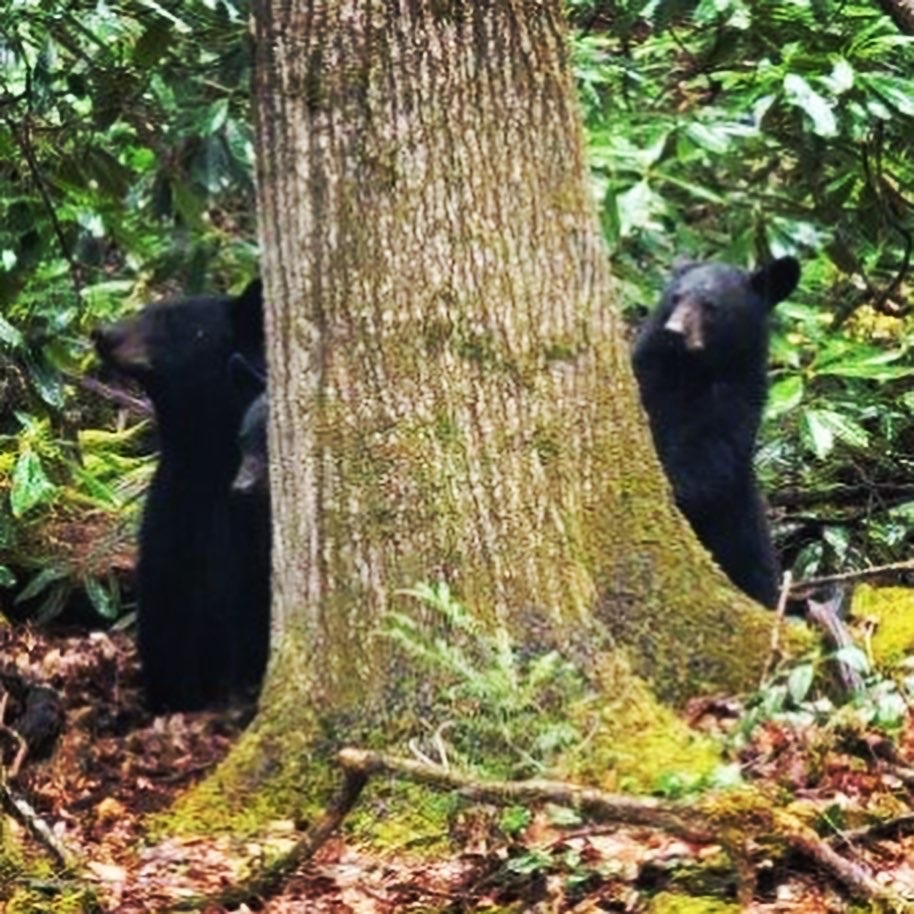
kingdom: Animalia
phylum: Chordata
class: Mammalia
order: Carnivora
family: Ursidae
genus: Ursus
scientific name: Ursus americanus
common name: American black bear
